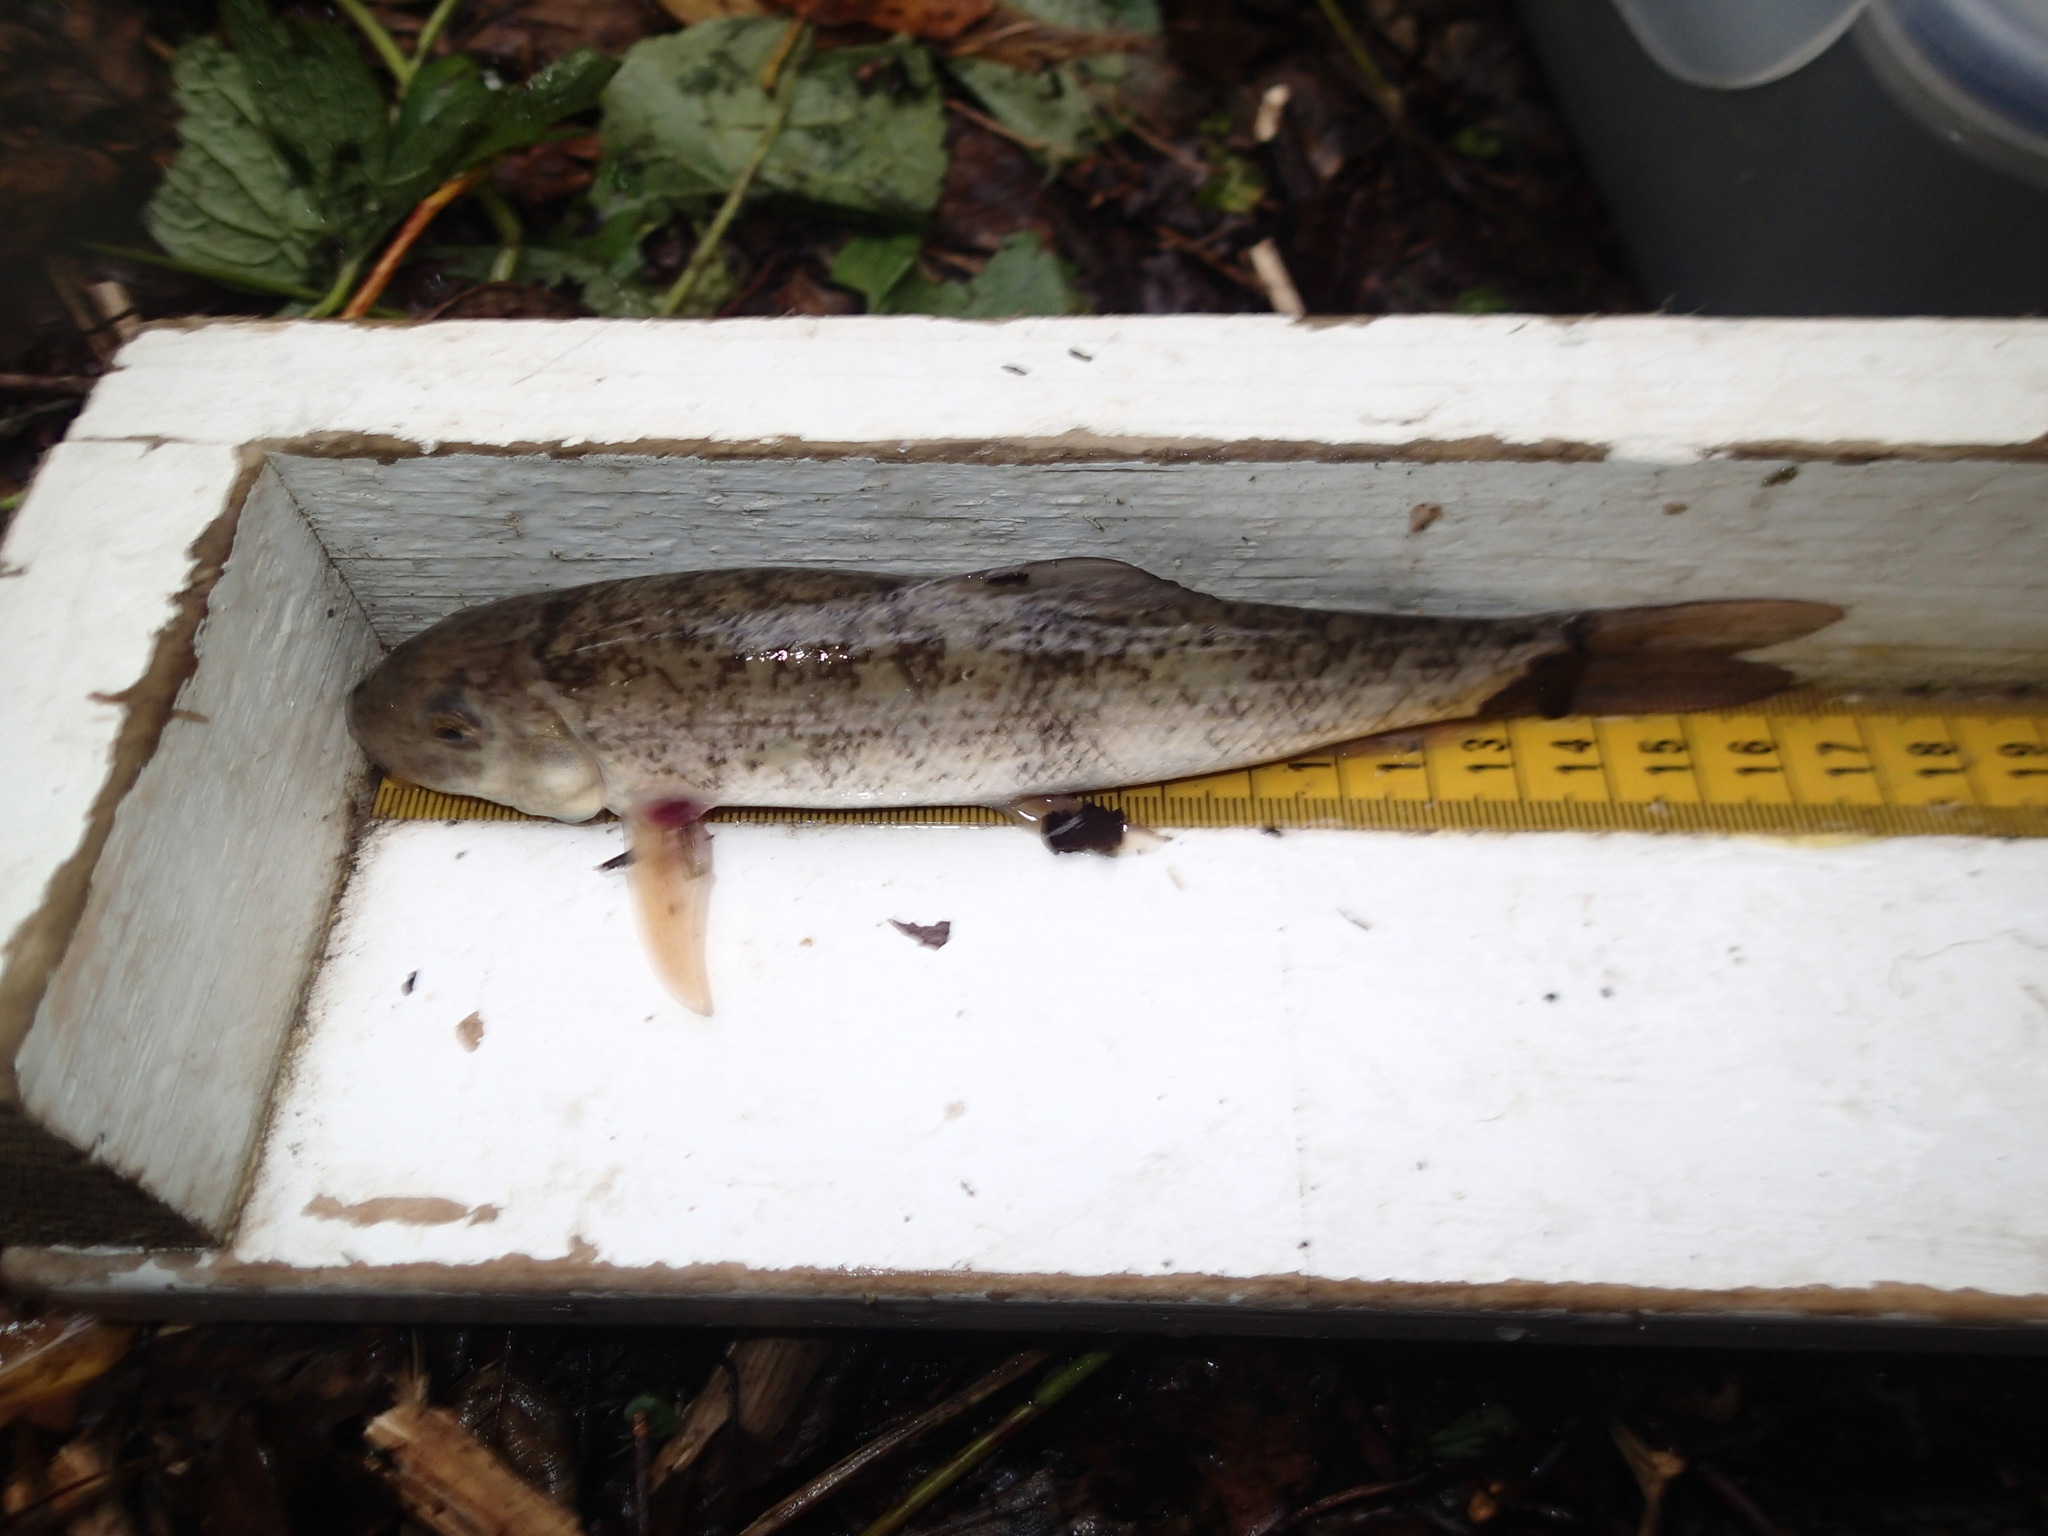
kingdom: Animalia
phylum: Chordata
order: Cypriniformes
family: Catostomidae
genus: Catostomus
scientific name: Catostomus commersonii
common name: White sucker
